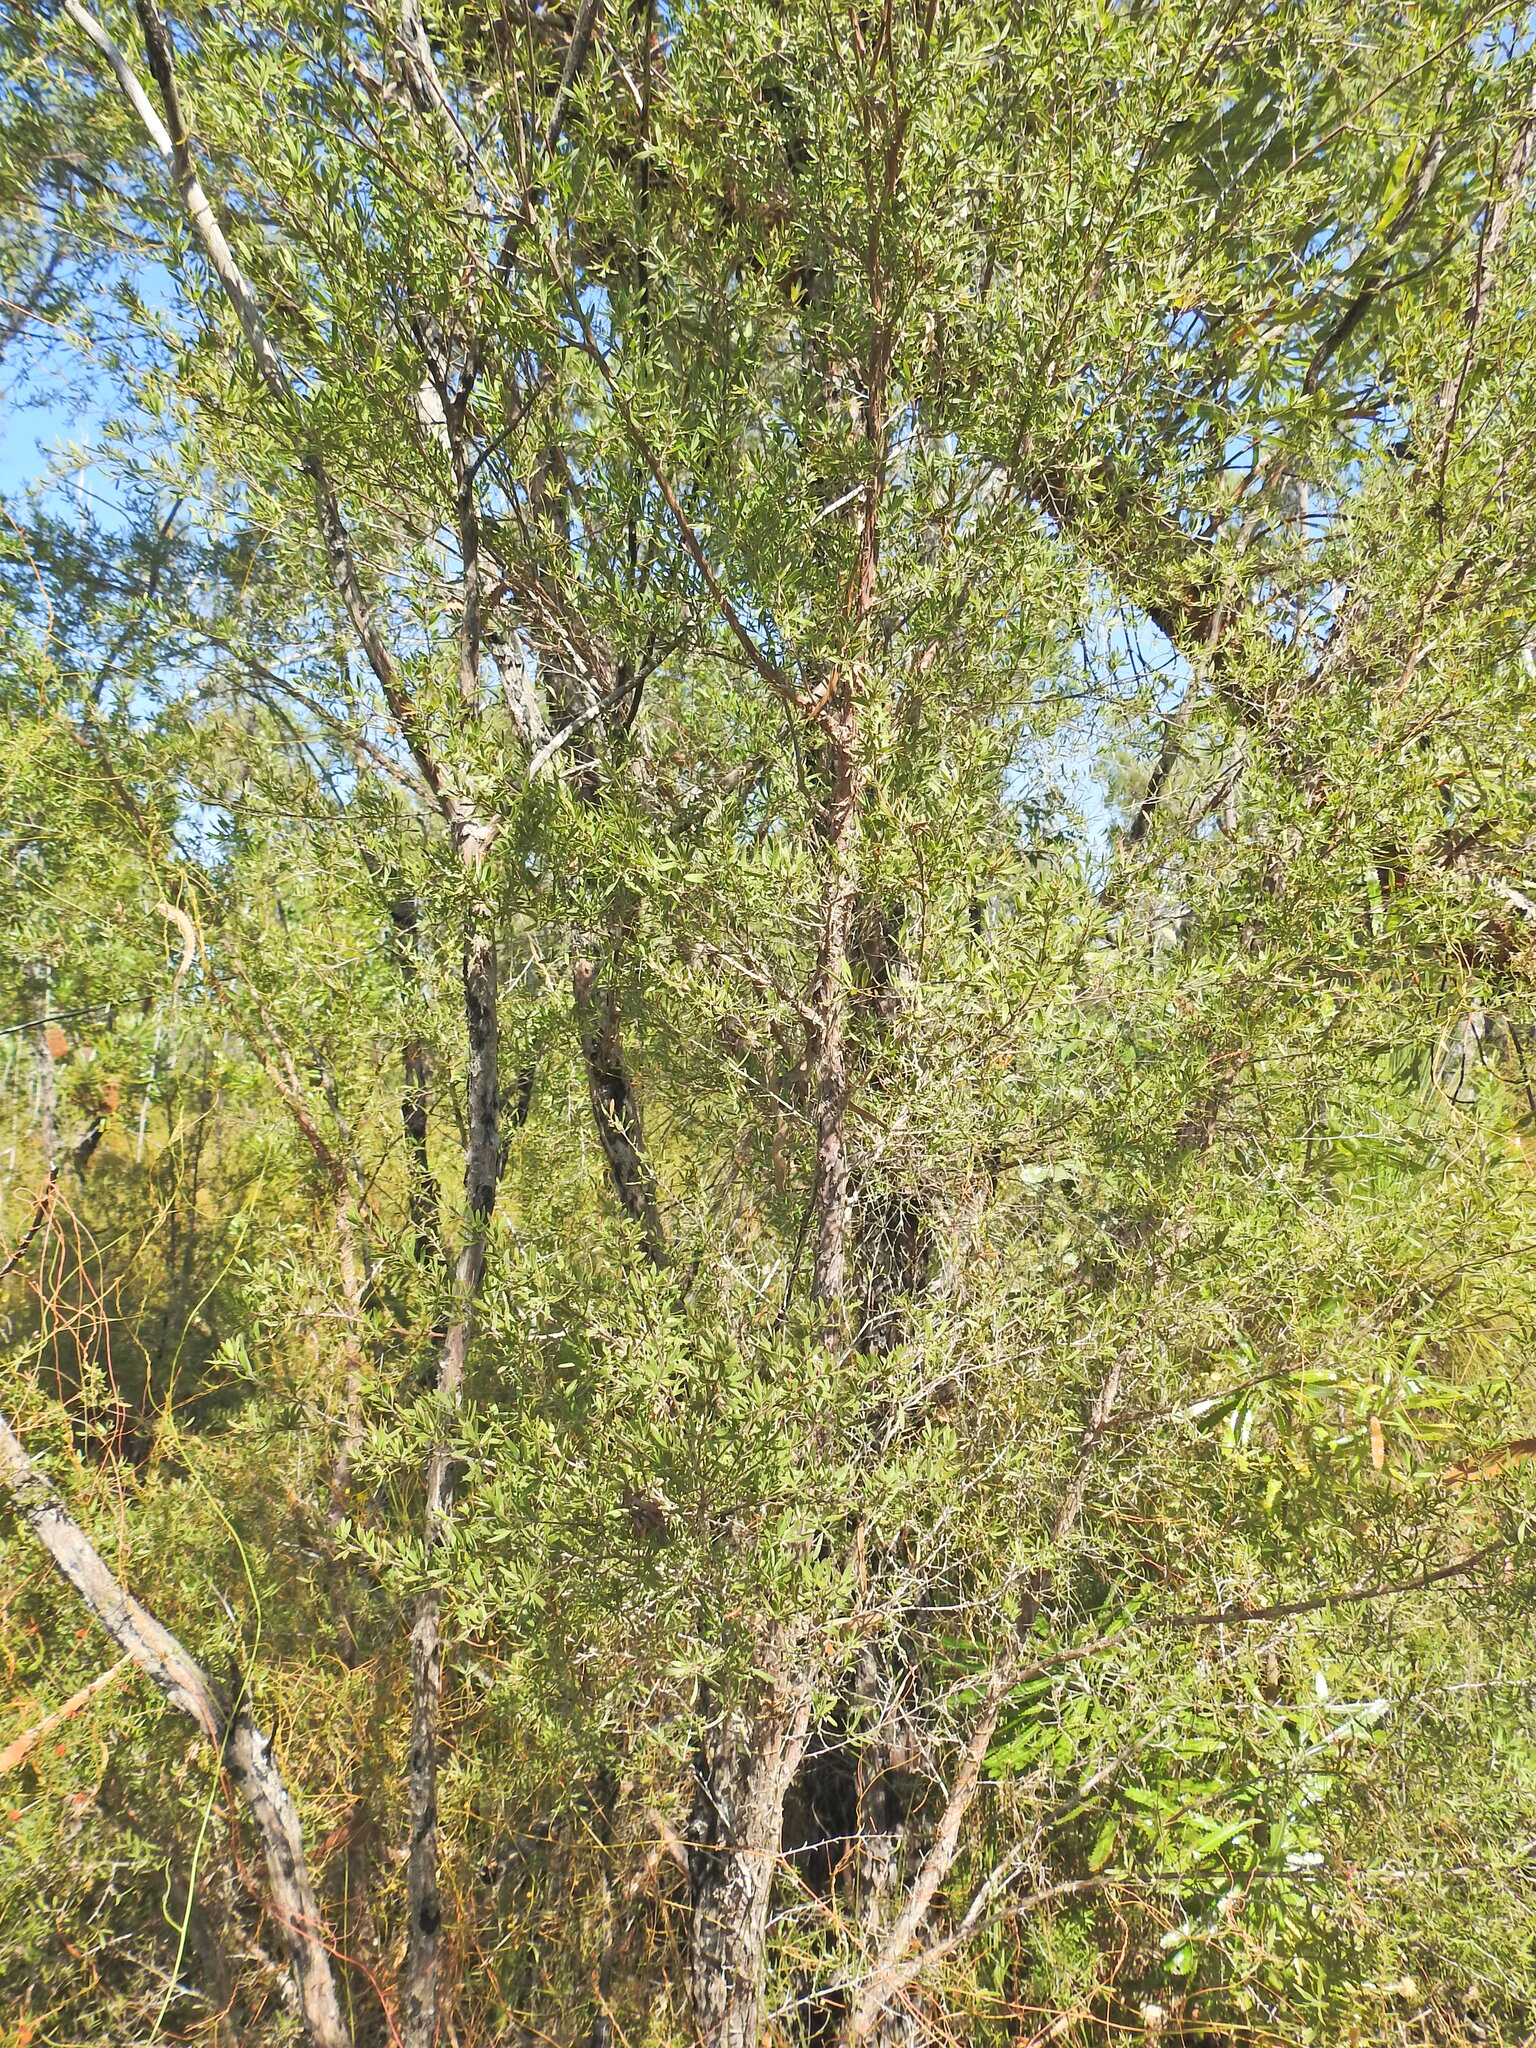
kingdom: Plantae
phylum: Tracheophyta
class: Magnoliopsida
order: Myrtales
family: Myrtaceae
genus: Leptospermum
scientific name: Leptospermum trinervium
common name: Flaky-barked tea-tree
